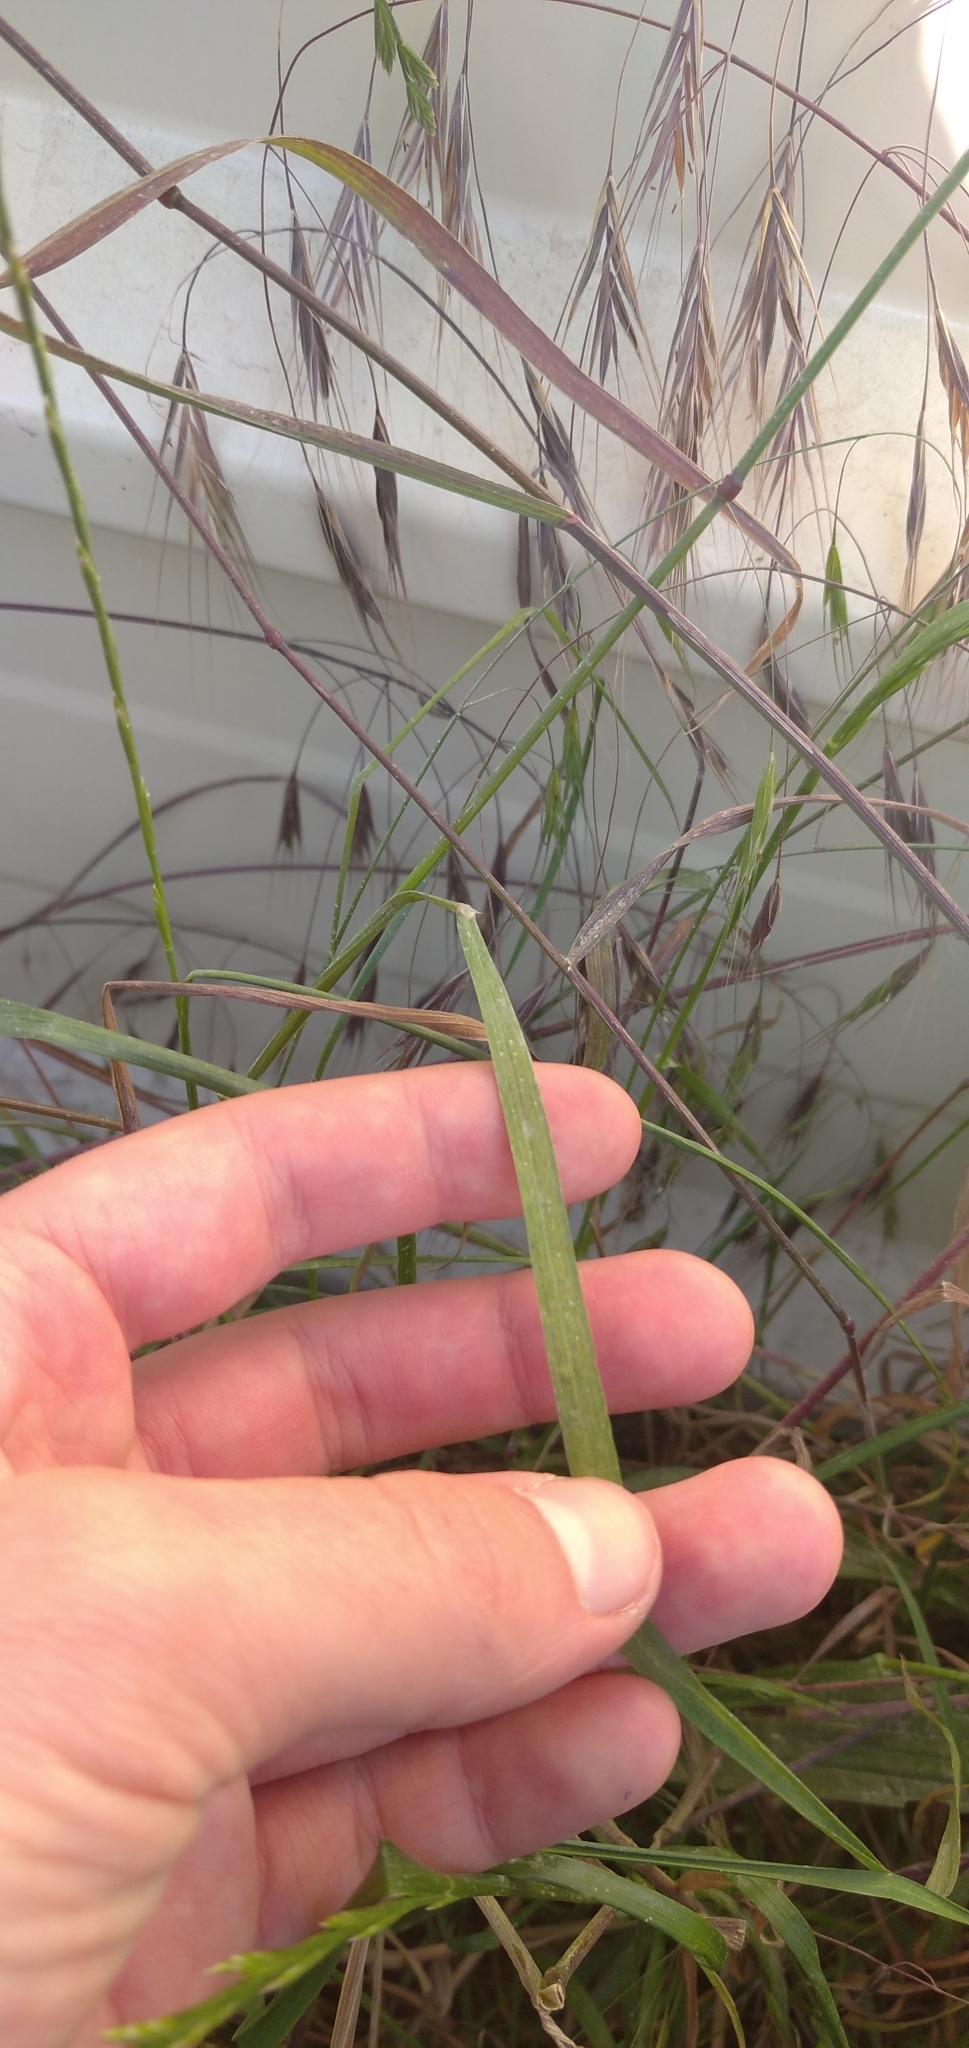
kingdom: Plantae
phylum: Tracheophyta
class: Liliopsida
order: Poales
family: Poaceae
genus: Bromus
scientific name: Bromus sterilis
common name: Poverty brome
